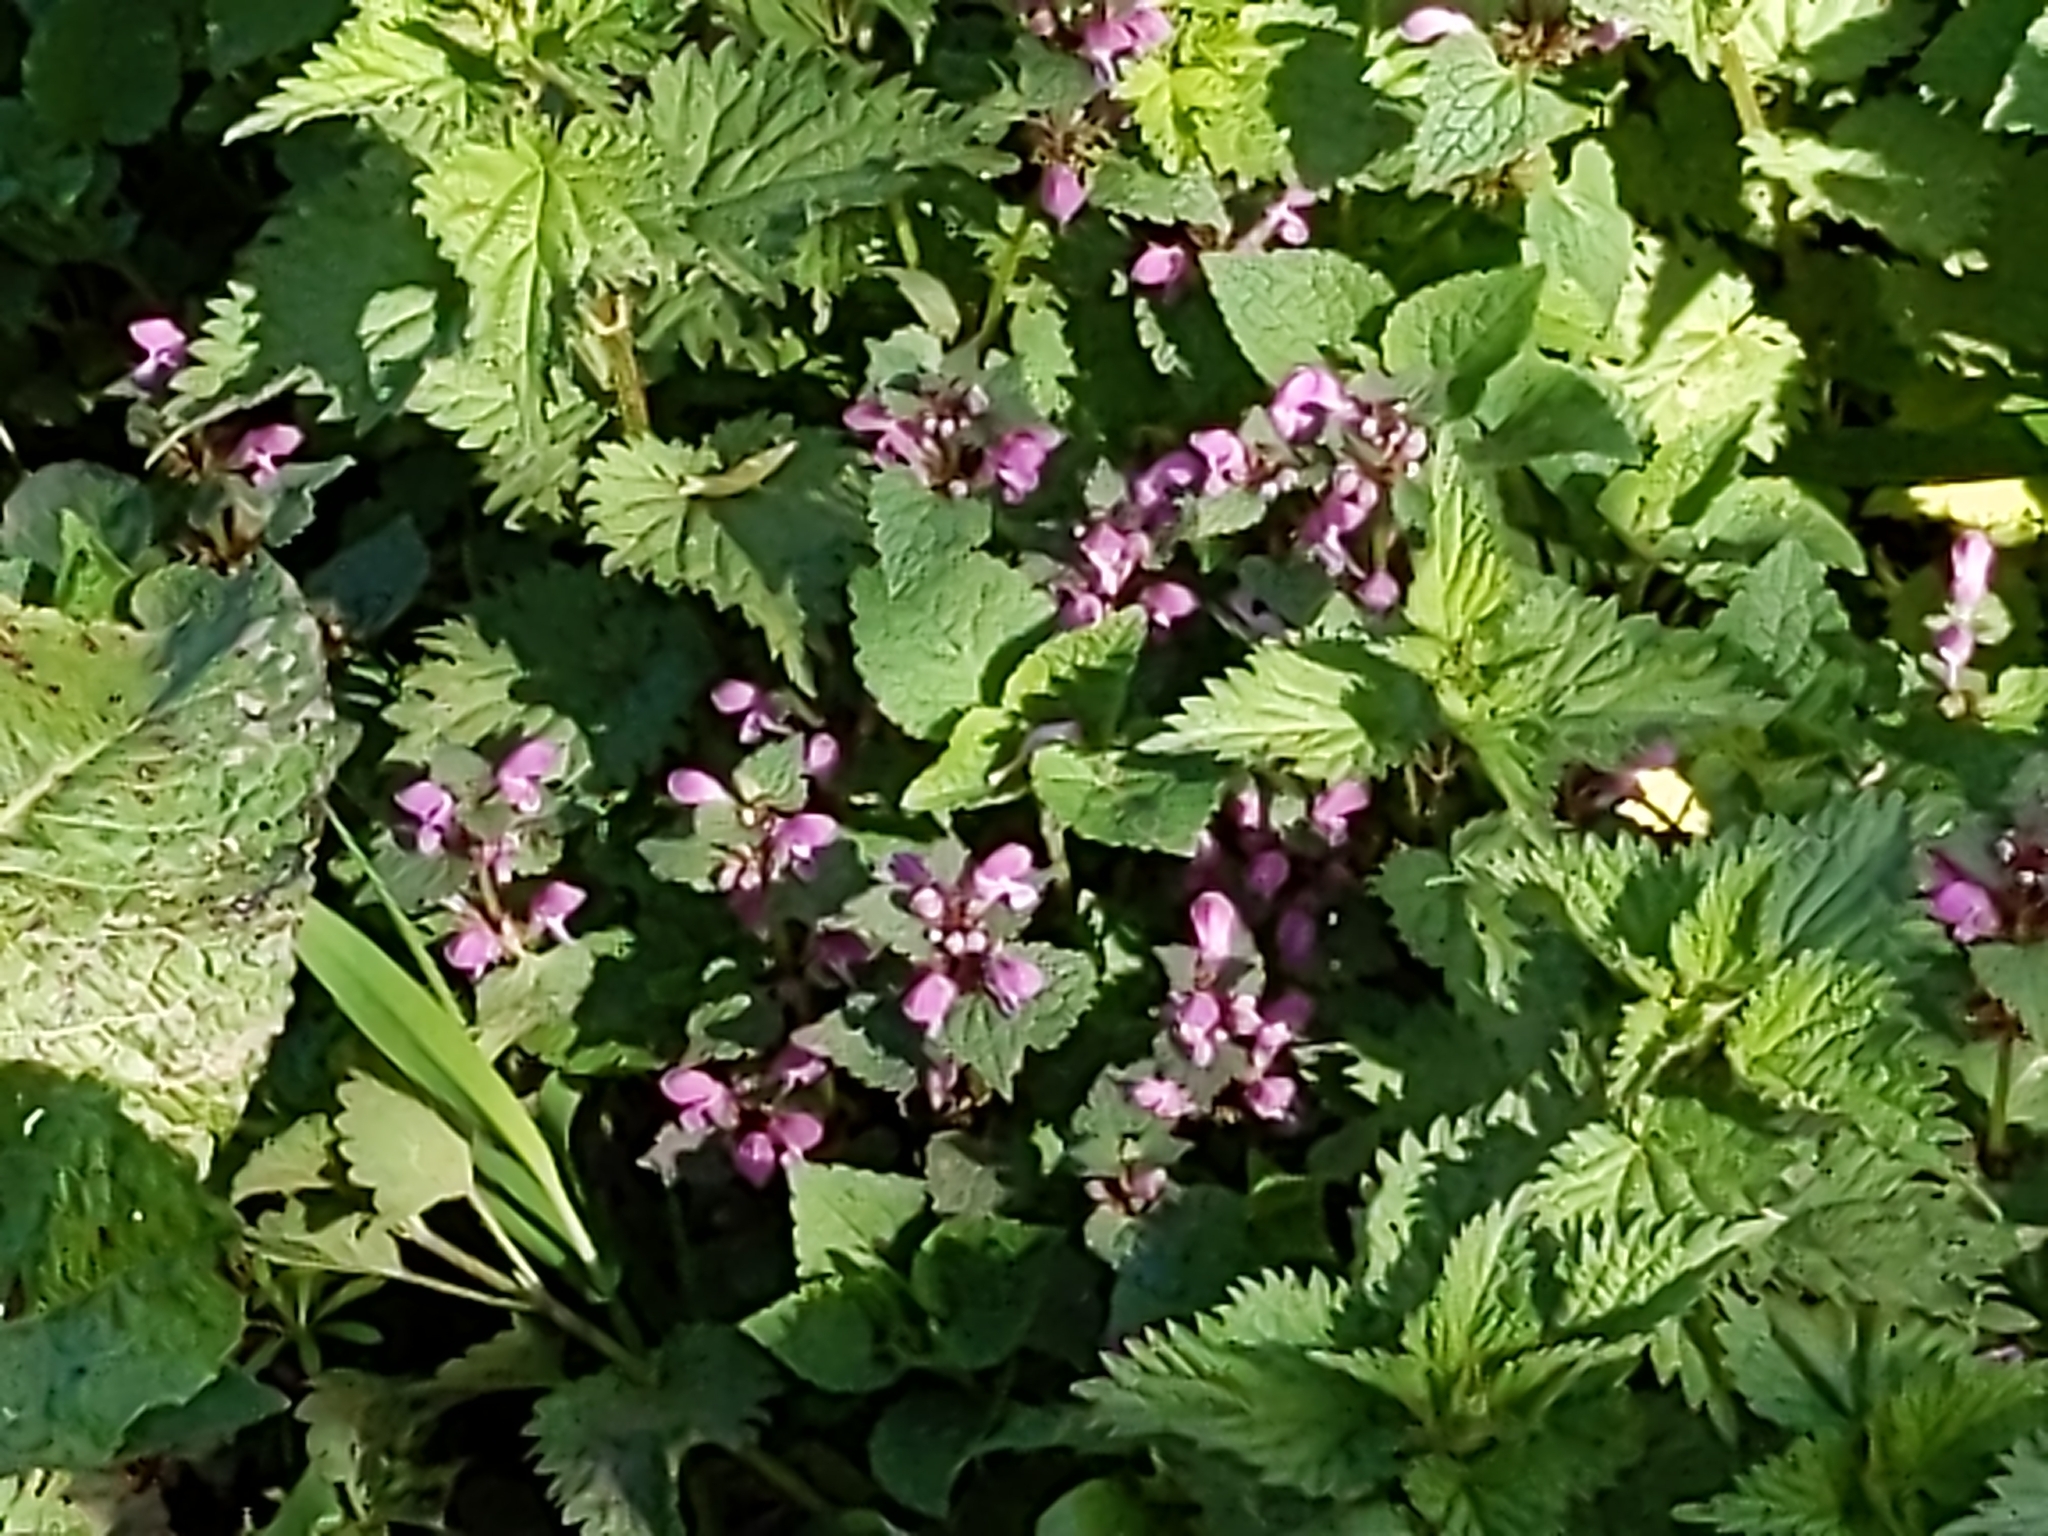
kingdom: Plantae
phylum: Tracheophyta
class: Magnoliopsida
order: Lamiales
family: Lamiaceae
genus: Lamium
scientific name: Lamium purpureum
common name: Red dead-nettle
